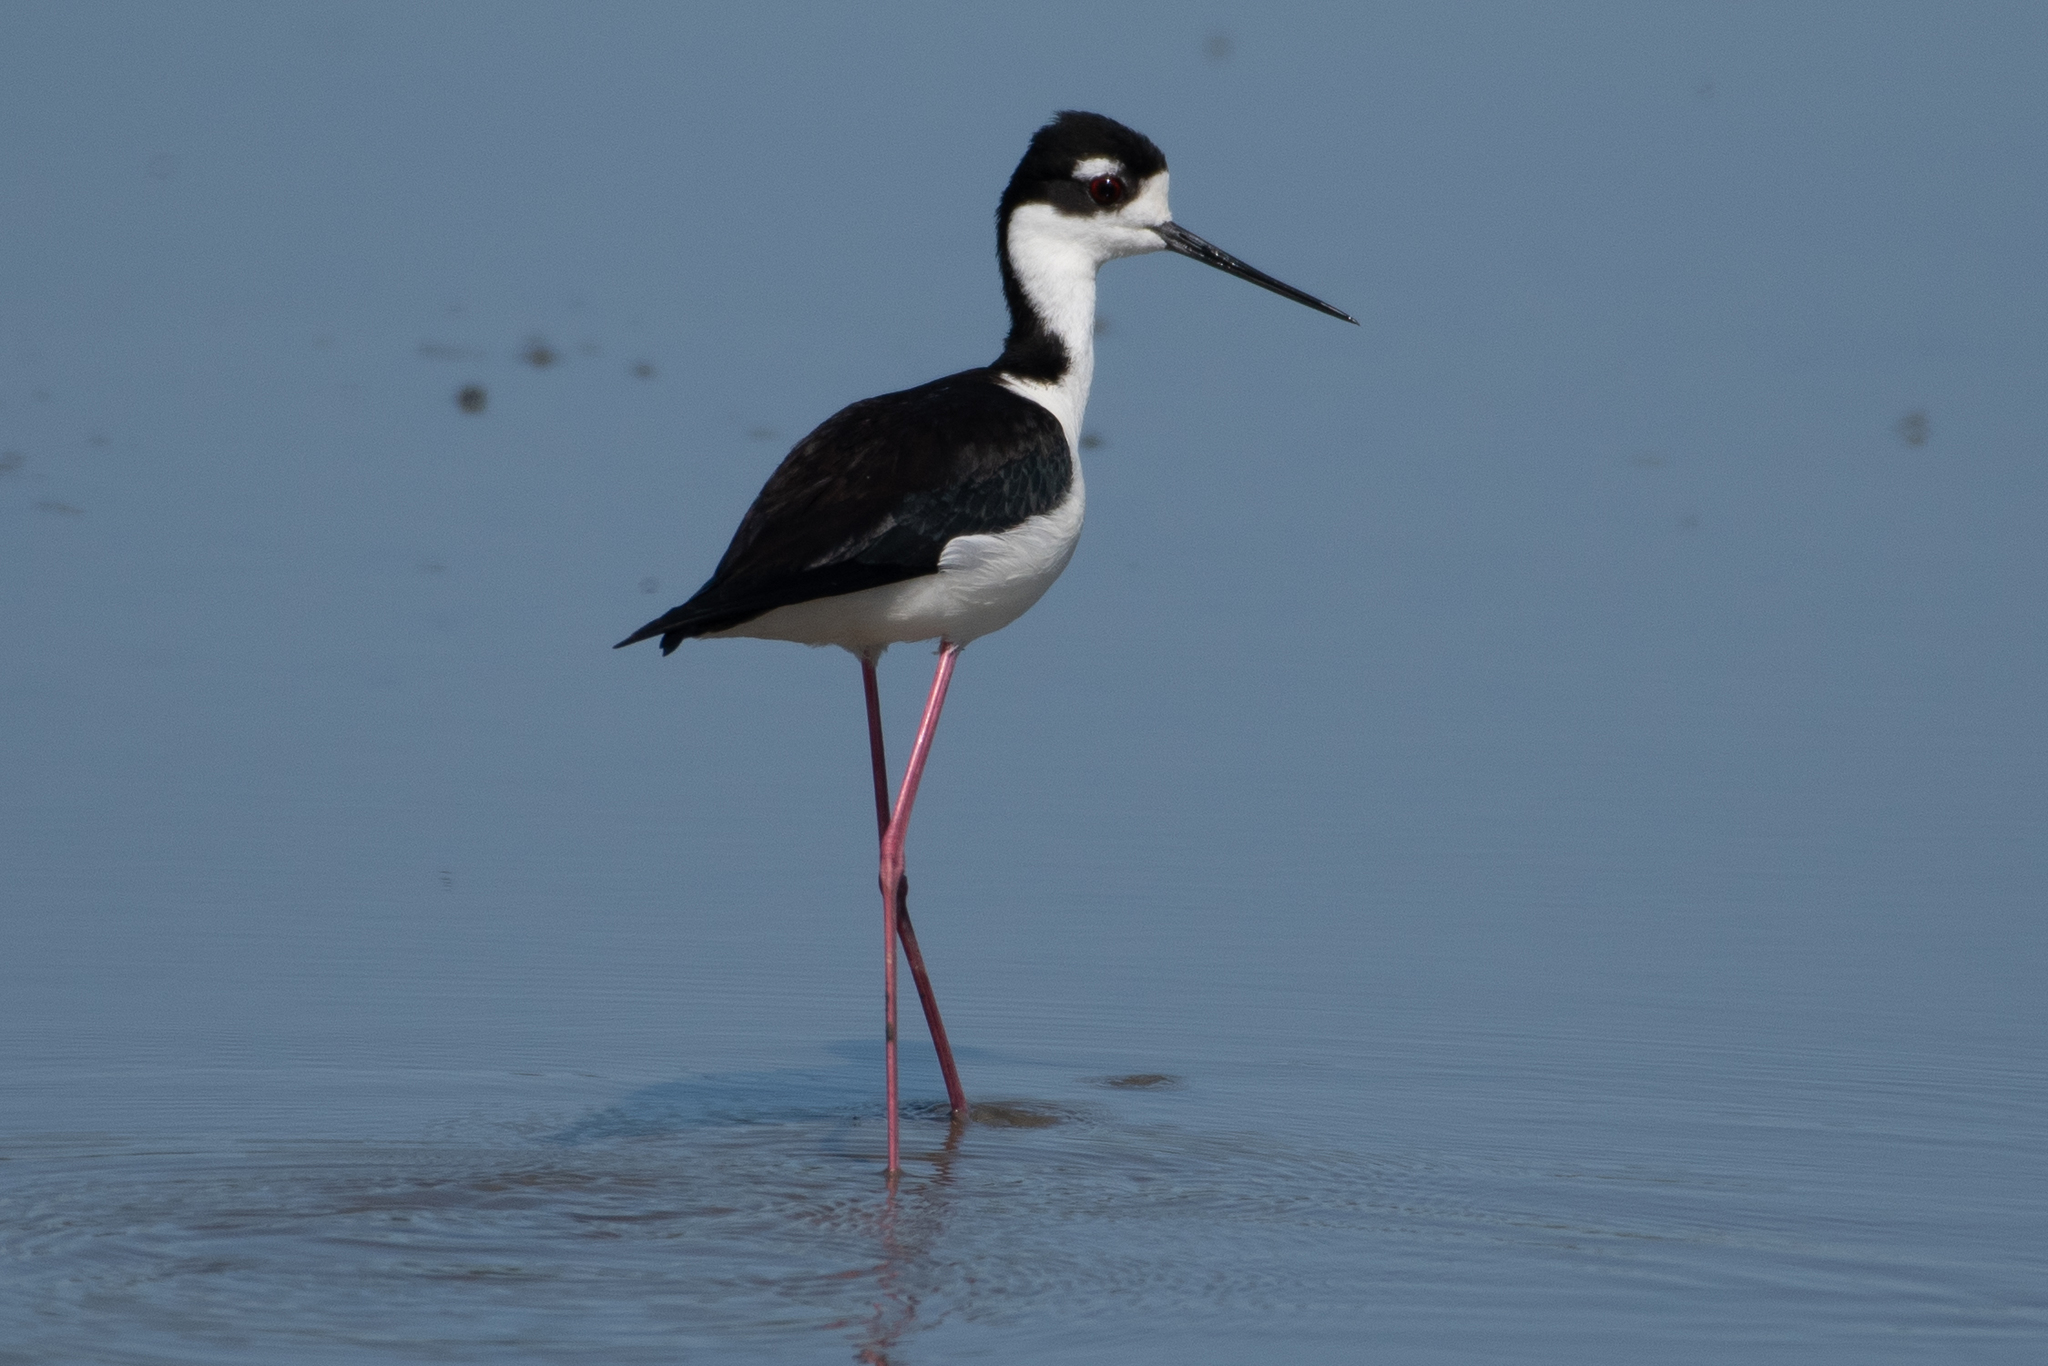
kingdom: Animalia
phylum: Chordata
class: Aves
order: Charadriiformes
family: Recurvirostridae
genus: Himantopus
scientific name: Himantopus mexicanus
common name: Black-necked stilt
